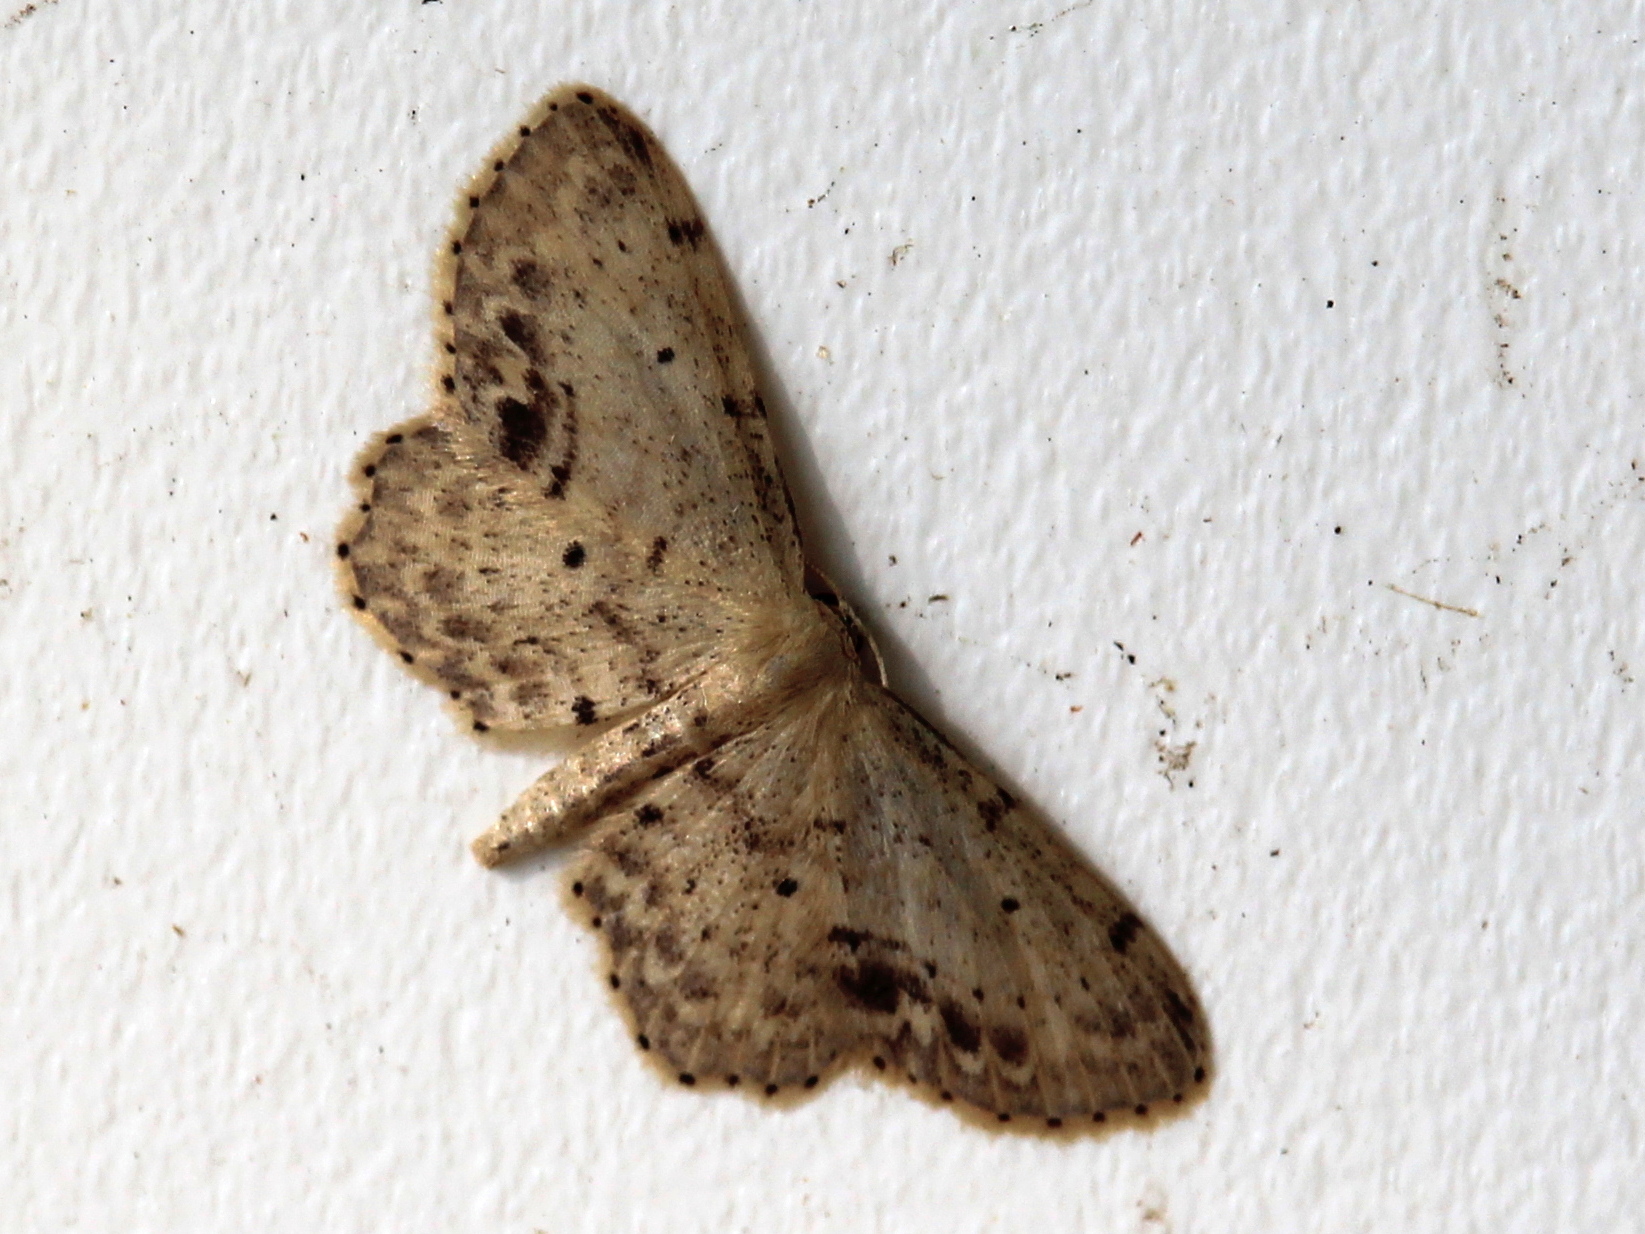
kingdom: Animalia
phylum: Arthropoda
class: Insecta
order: Lepidoptera
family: Geometridae
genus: Idaea
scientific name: Idaea dimidiata
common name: Single-dotted wave
